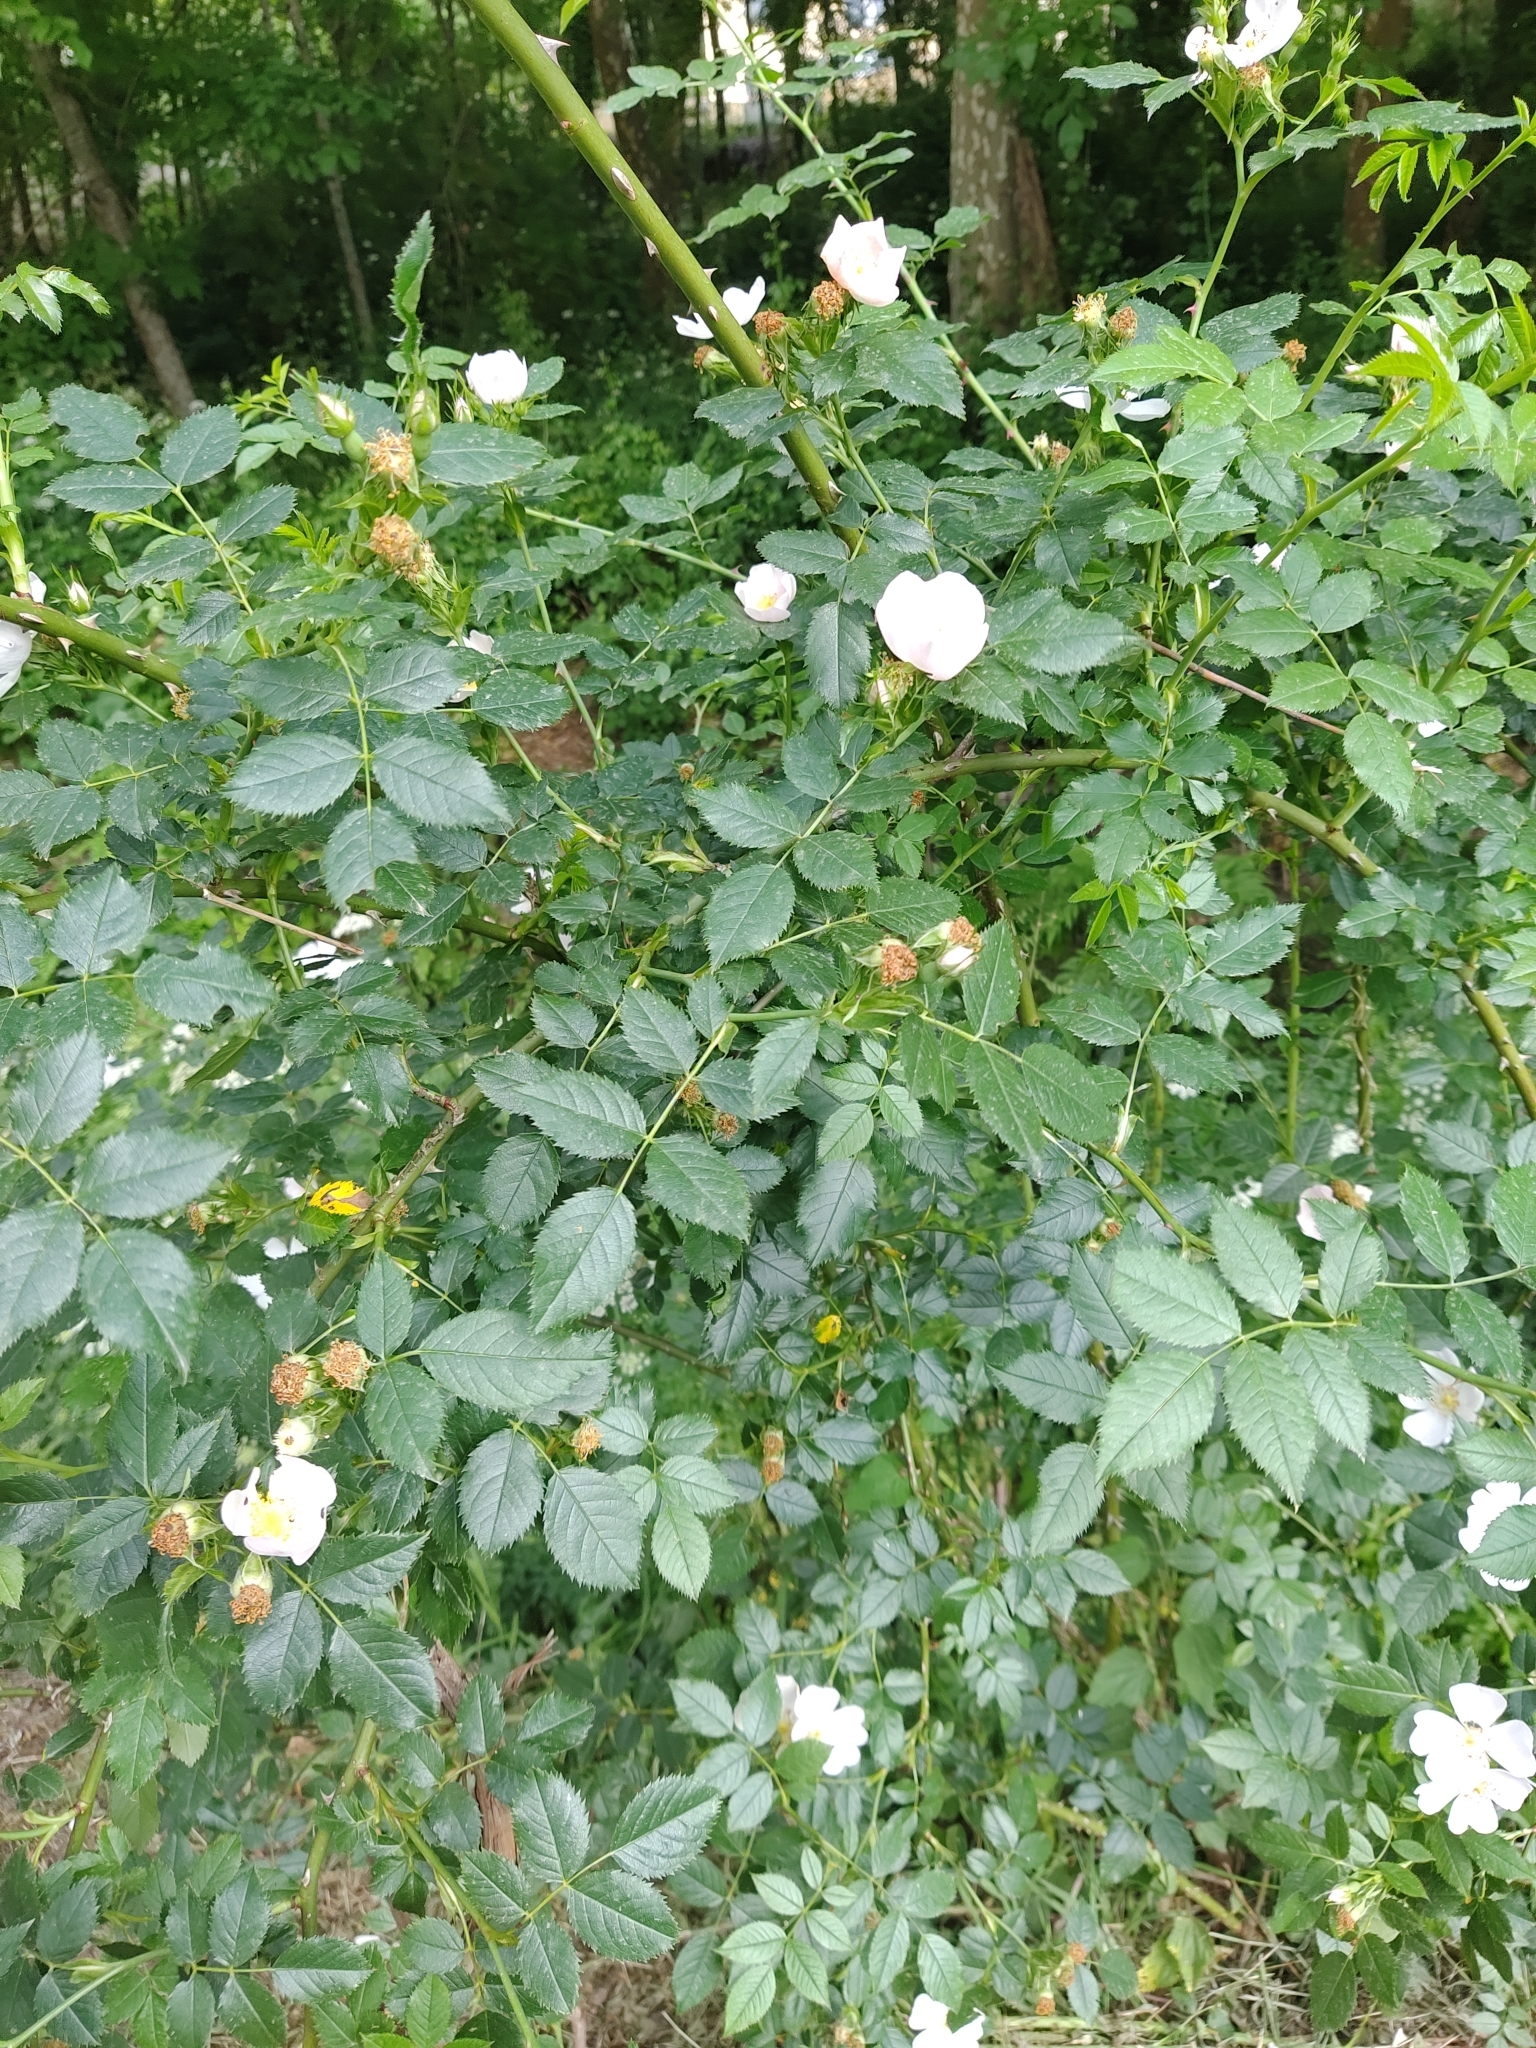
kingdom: Plantae
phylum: Tracheophyta
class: Magnoliopsida
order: Rosales
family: Rosaceae
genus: Rosa
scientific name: Rosa canina
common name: Dog rose
